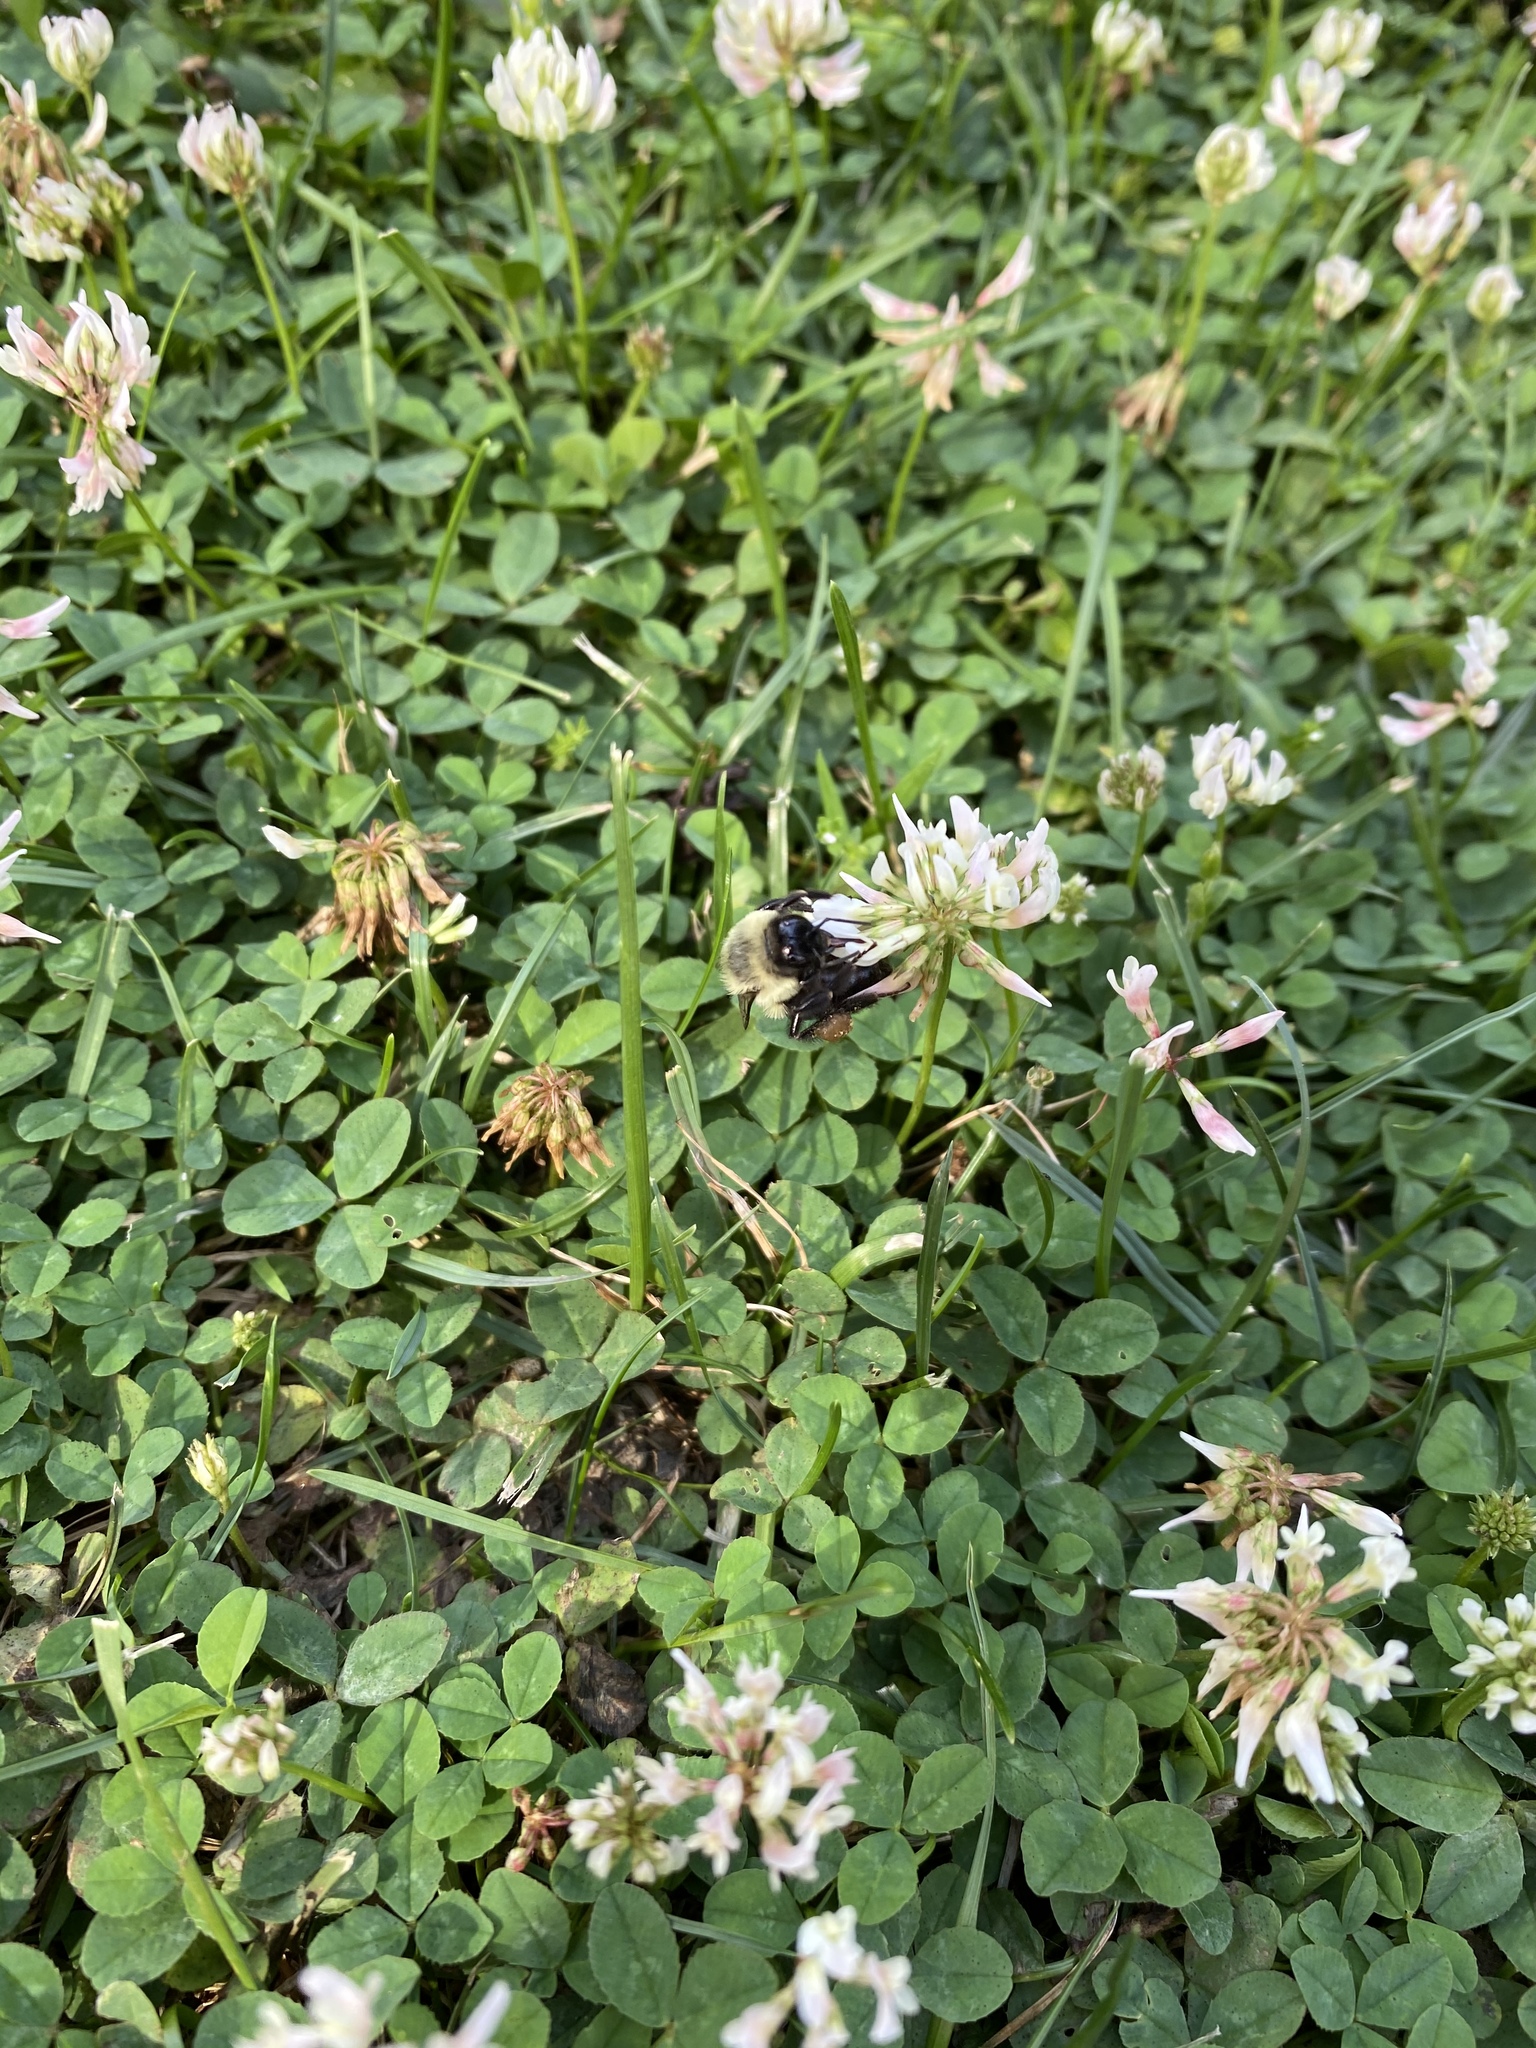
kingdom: Animalia
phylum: Arthropoda
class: Insecta
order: Hymenoptera
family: Apidae
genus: Bombus
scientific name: Bombus impatiens
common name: Common eastern bumble bee
